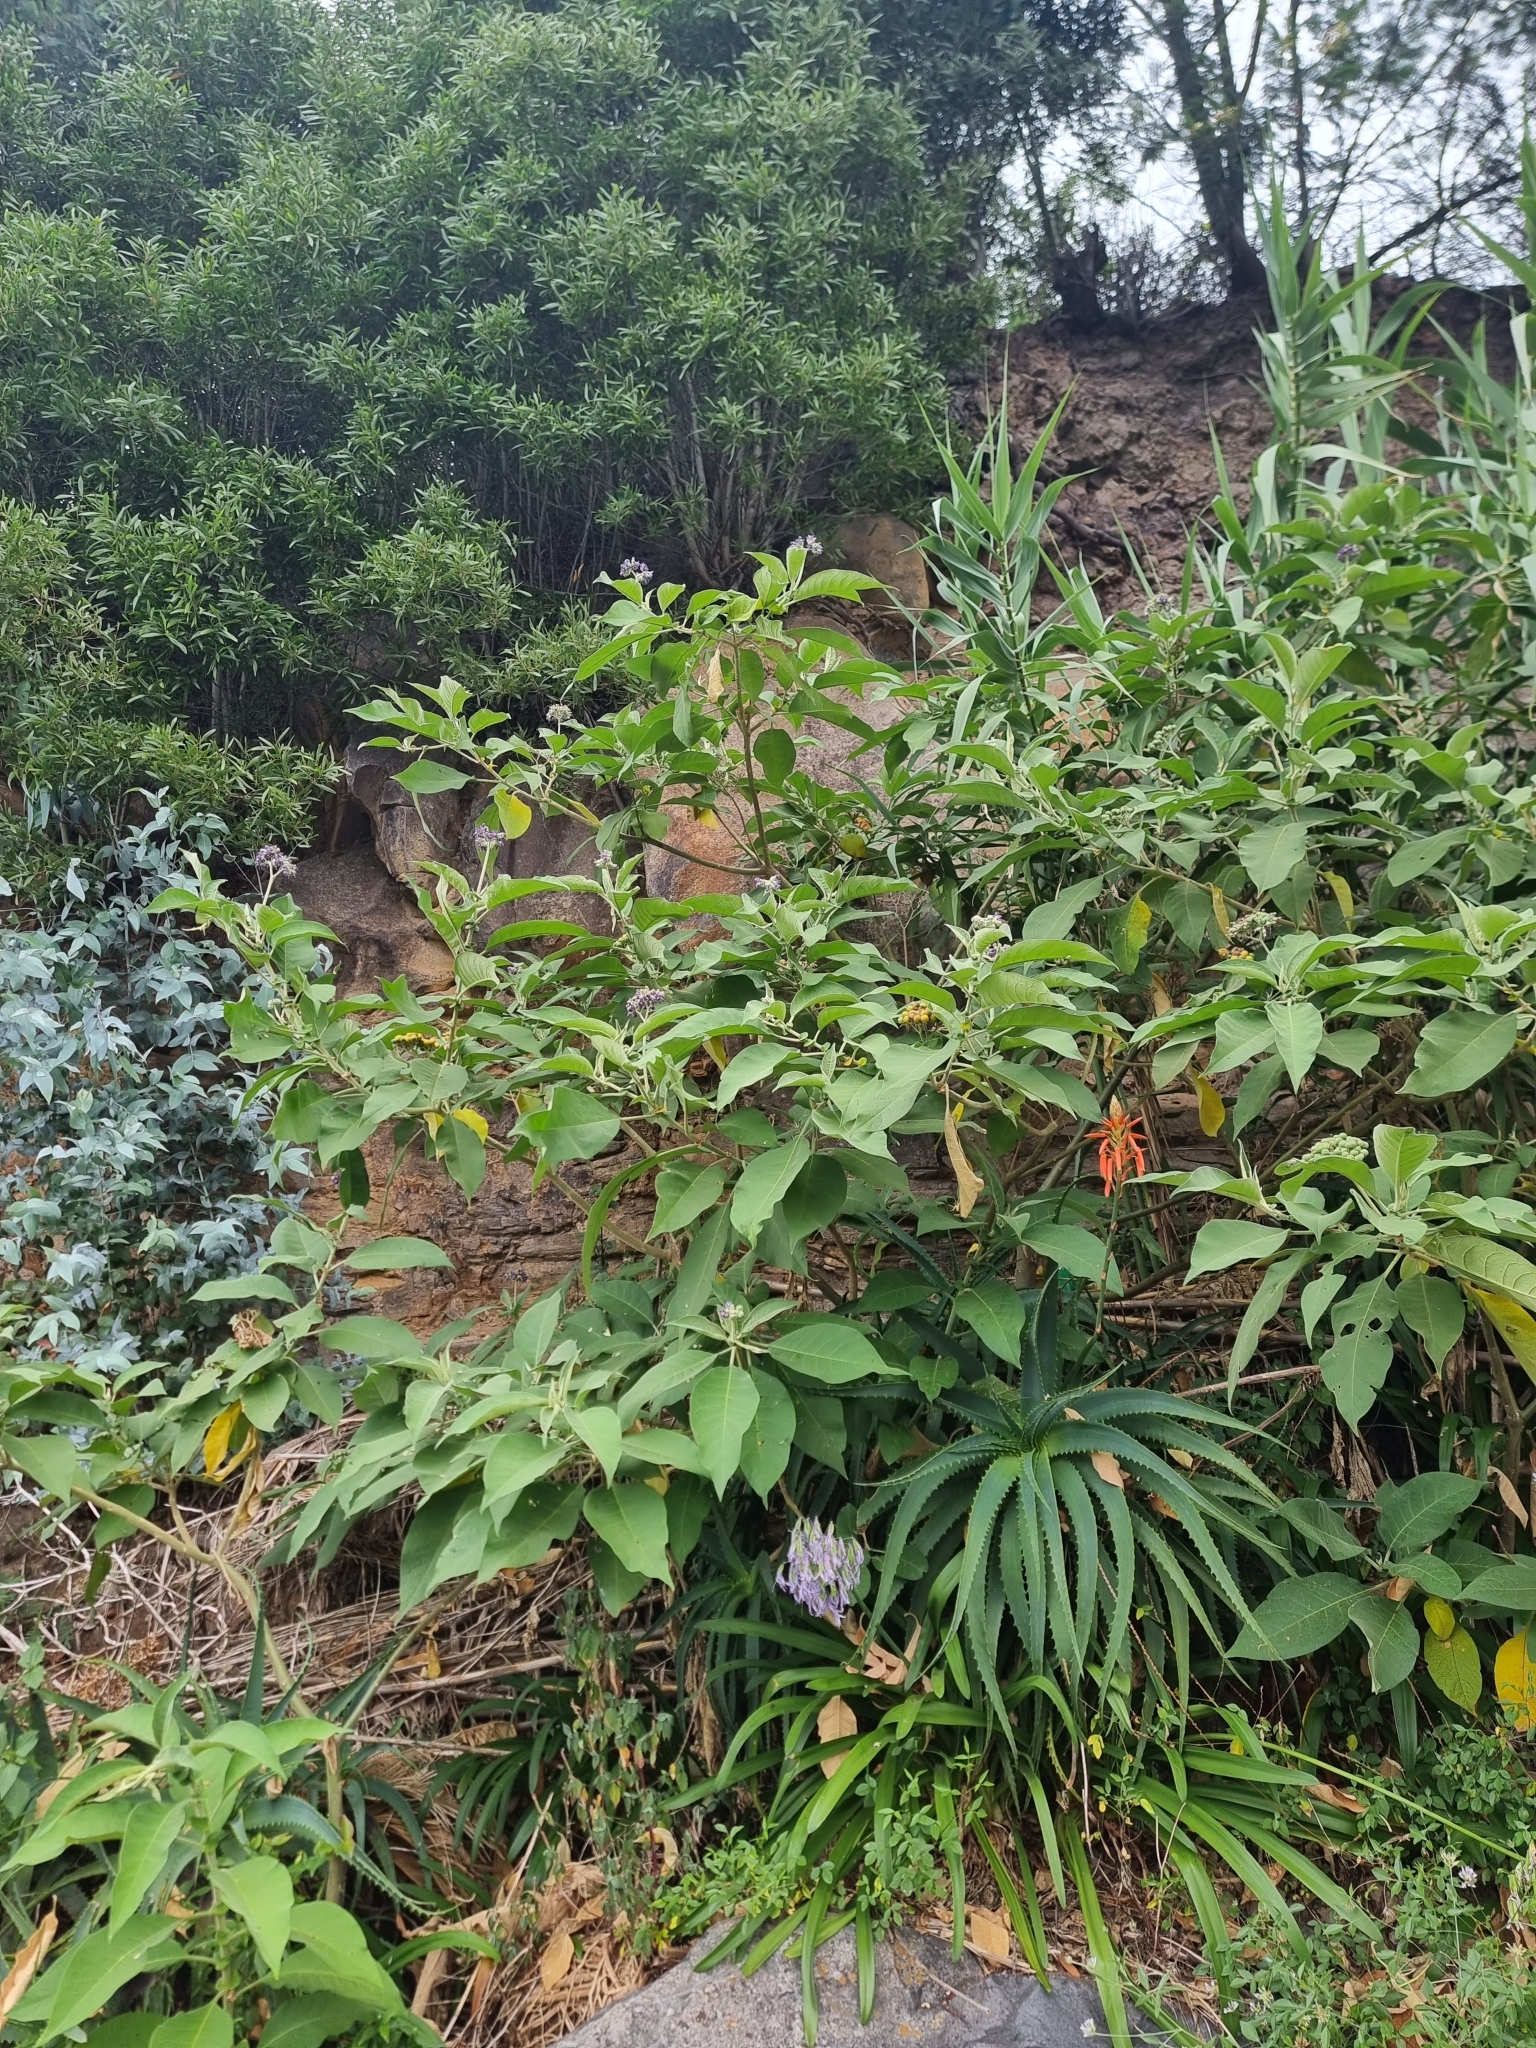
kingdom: Plantae
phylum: Tracheophyta
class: Magnoliopsida
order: Solanales
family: Solanaceae
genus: Solanum
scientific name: Solanum mauritianum
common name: Earleaf nightshade
